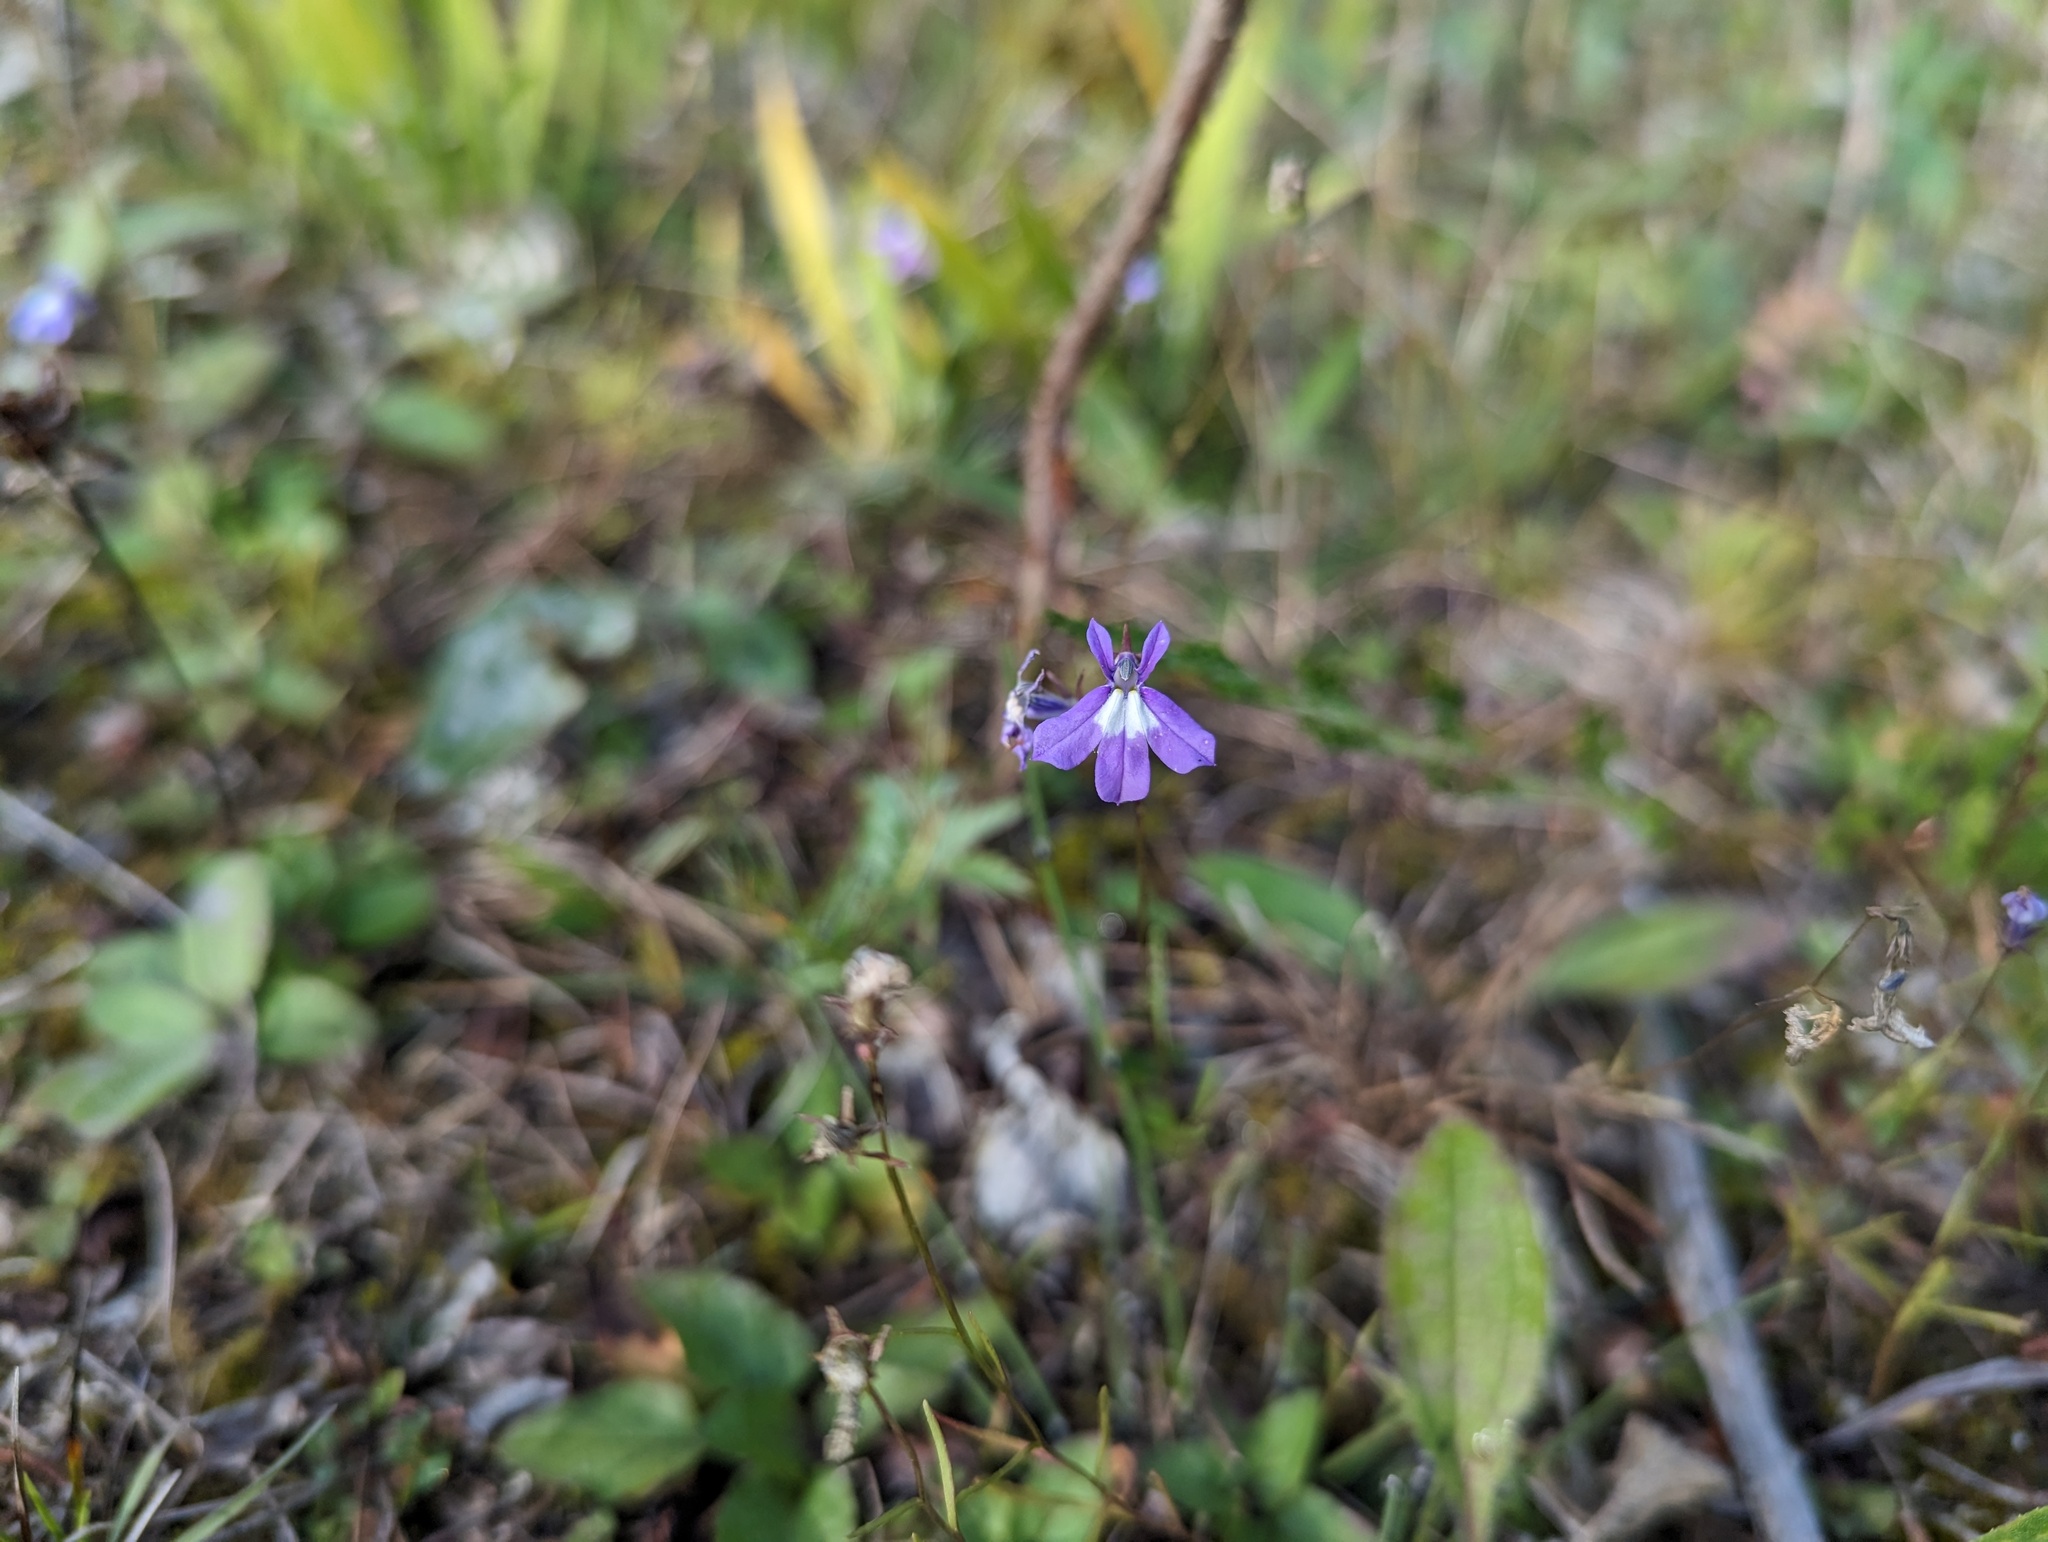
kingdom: Plantae
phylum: Tracheophyta
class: Magnoliopsida
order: Asterales
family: Campanulaceae
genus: Lobelia
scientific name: Lobelia kalmii
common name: Kalm's lobelia
